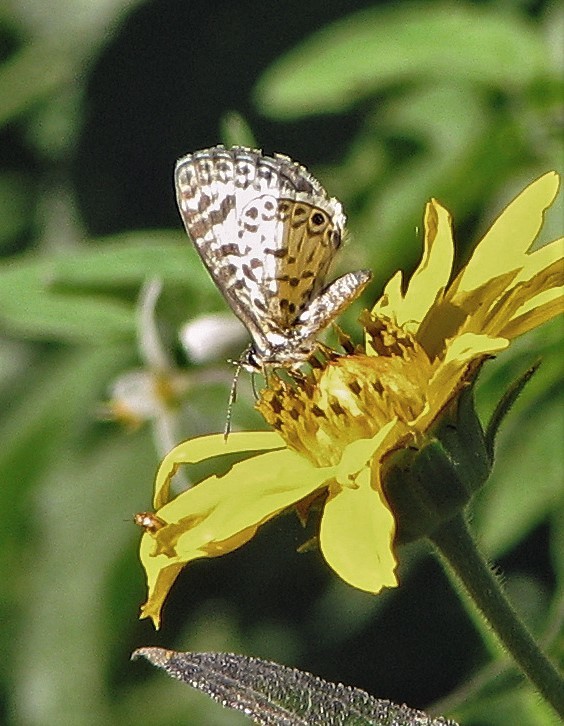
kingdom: Animalia
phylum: Arthropoda
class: Insecta
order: Lepidoptera
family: Lycaenidae
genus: Leptotes
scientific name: Leptotes cassius
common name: Cassius blue
